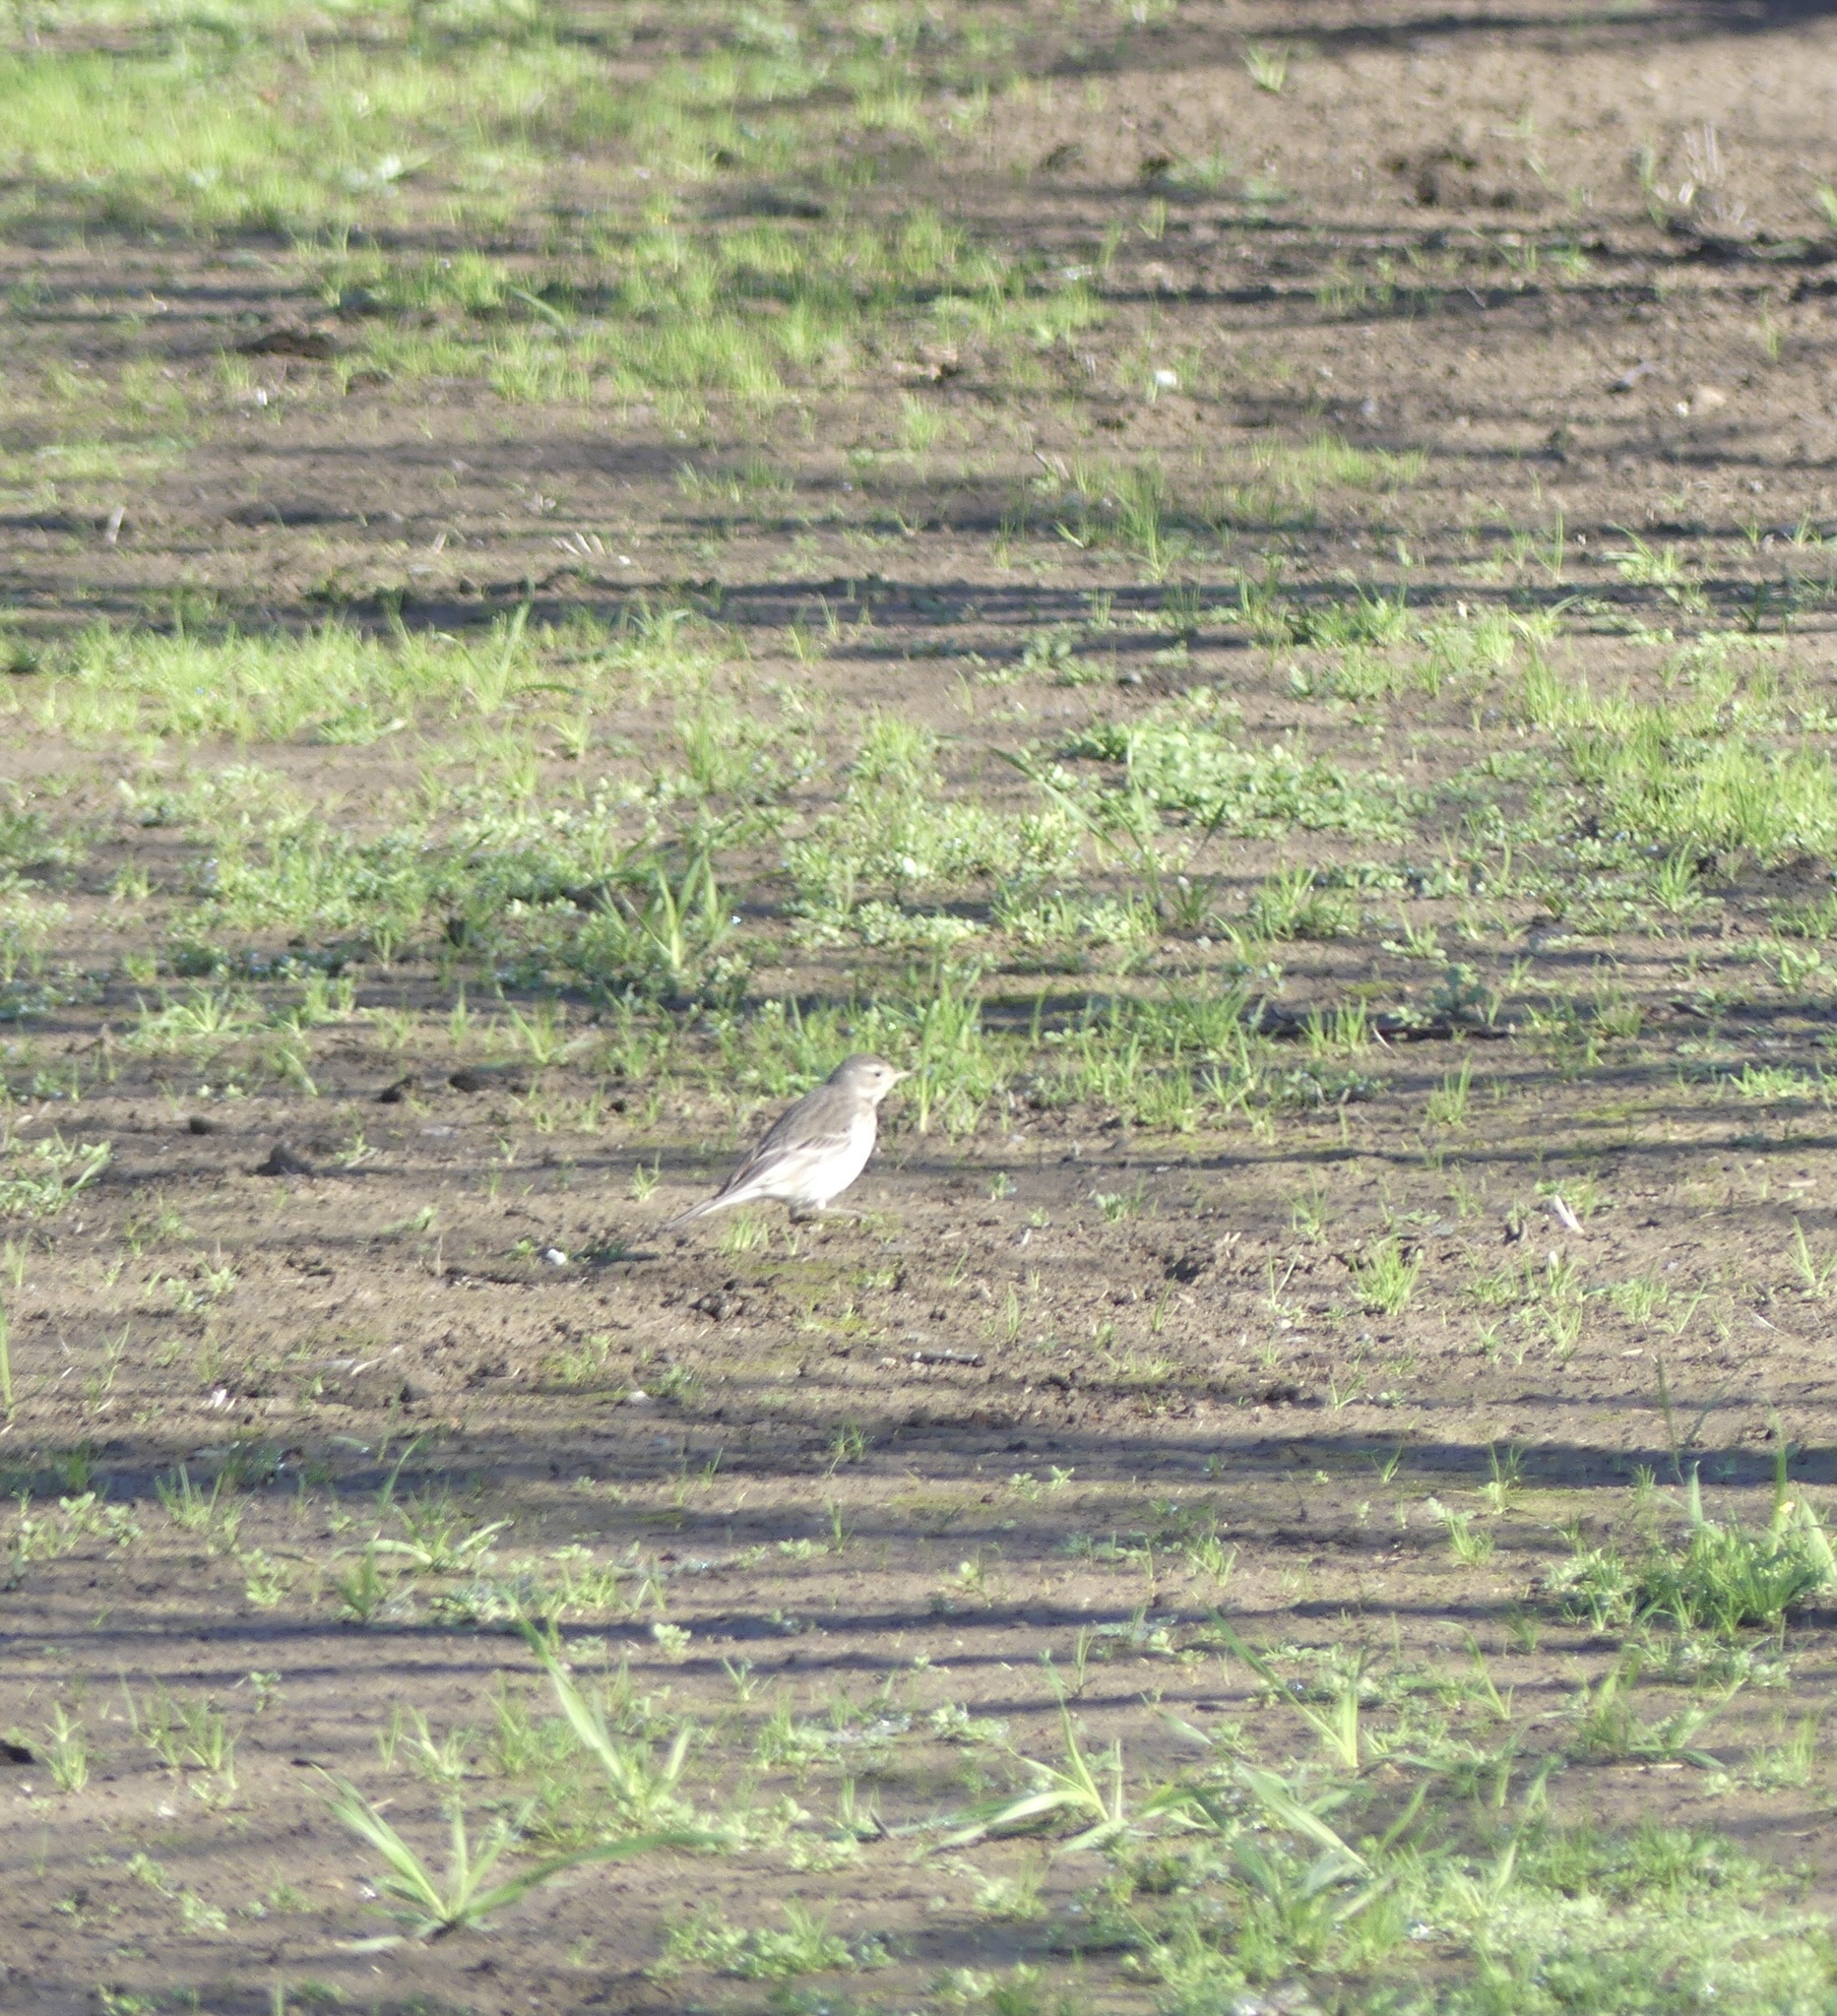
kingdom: Animalia
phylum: Chordata
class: Aves
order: Passeriformes
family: Motacillidae
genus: Anthus
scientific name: Anthus rubescens
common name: Buff-bellied pipit
